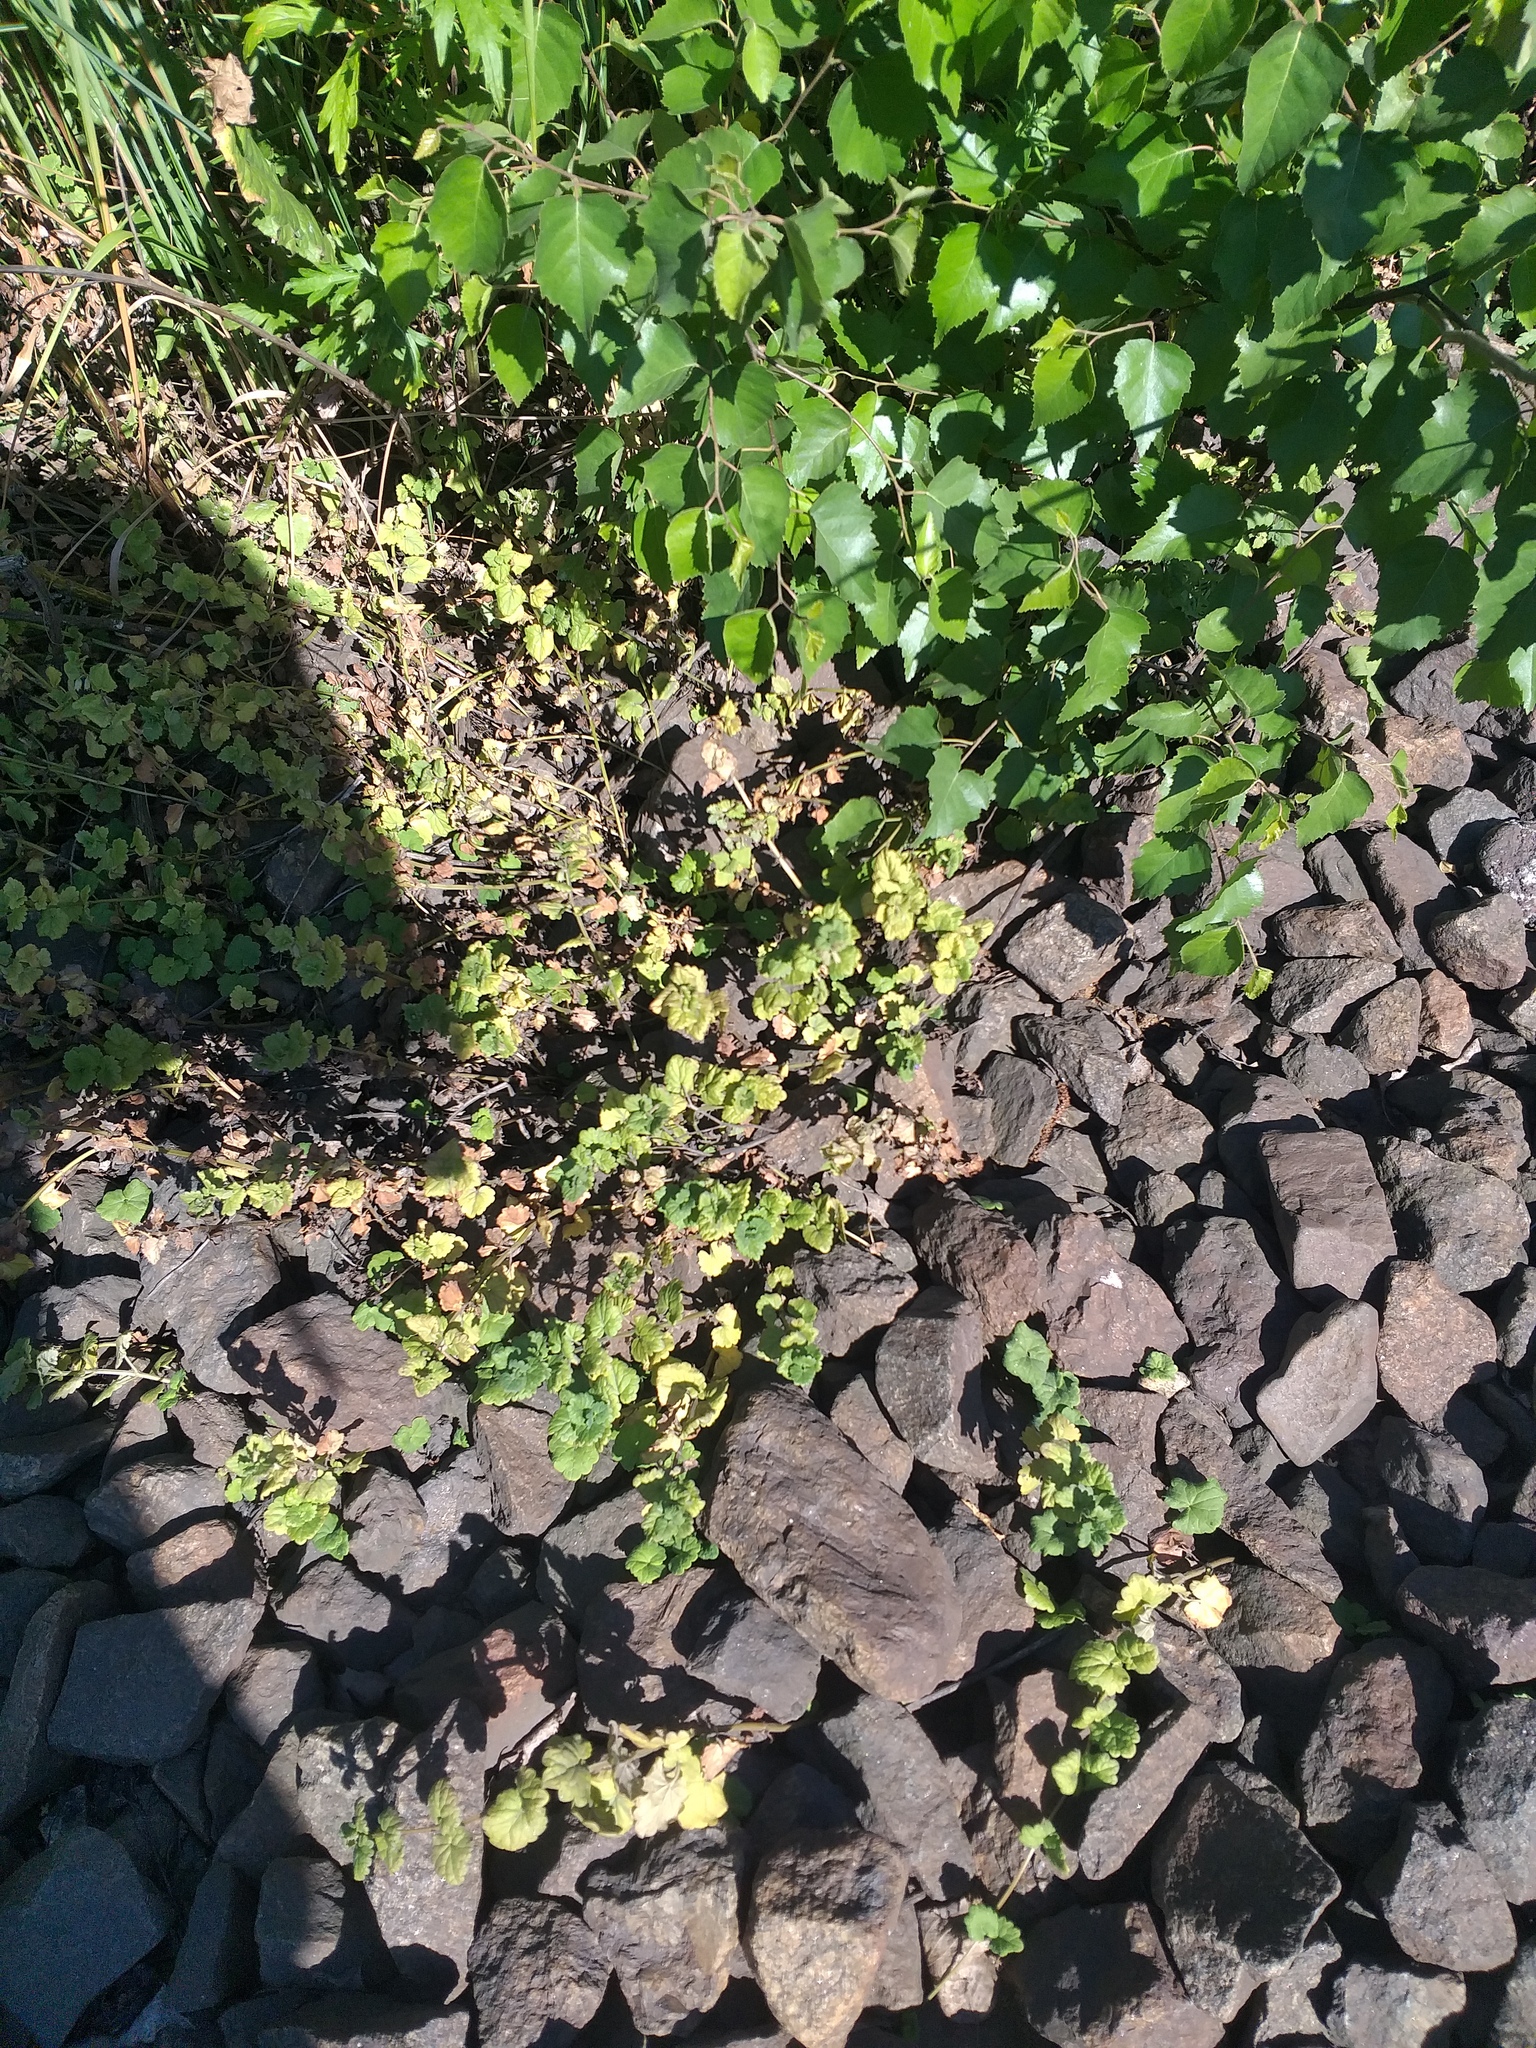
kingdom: Plantae
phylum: Tracheophyta
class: Magnoliopsida
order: Lamiales
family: Lamiaceae
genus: Glechoma
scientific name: Glechoma hederacea
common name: Ground ivy
